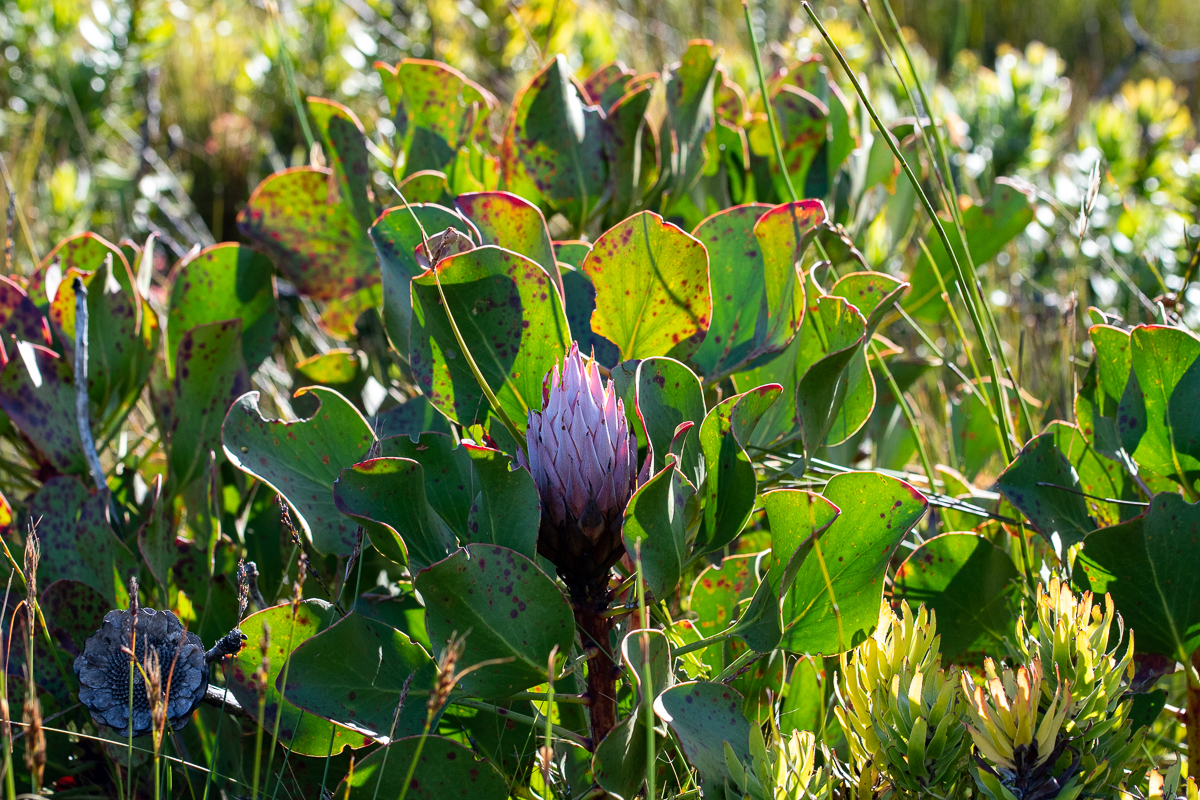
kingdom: Plantae
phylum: Tracheophyta
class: Magnoliopsida
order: Proteales
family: Proteaceae
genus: Protea
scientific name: Protea cynaroides
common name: King protea
